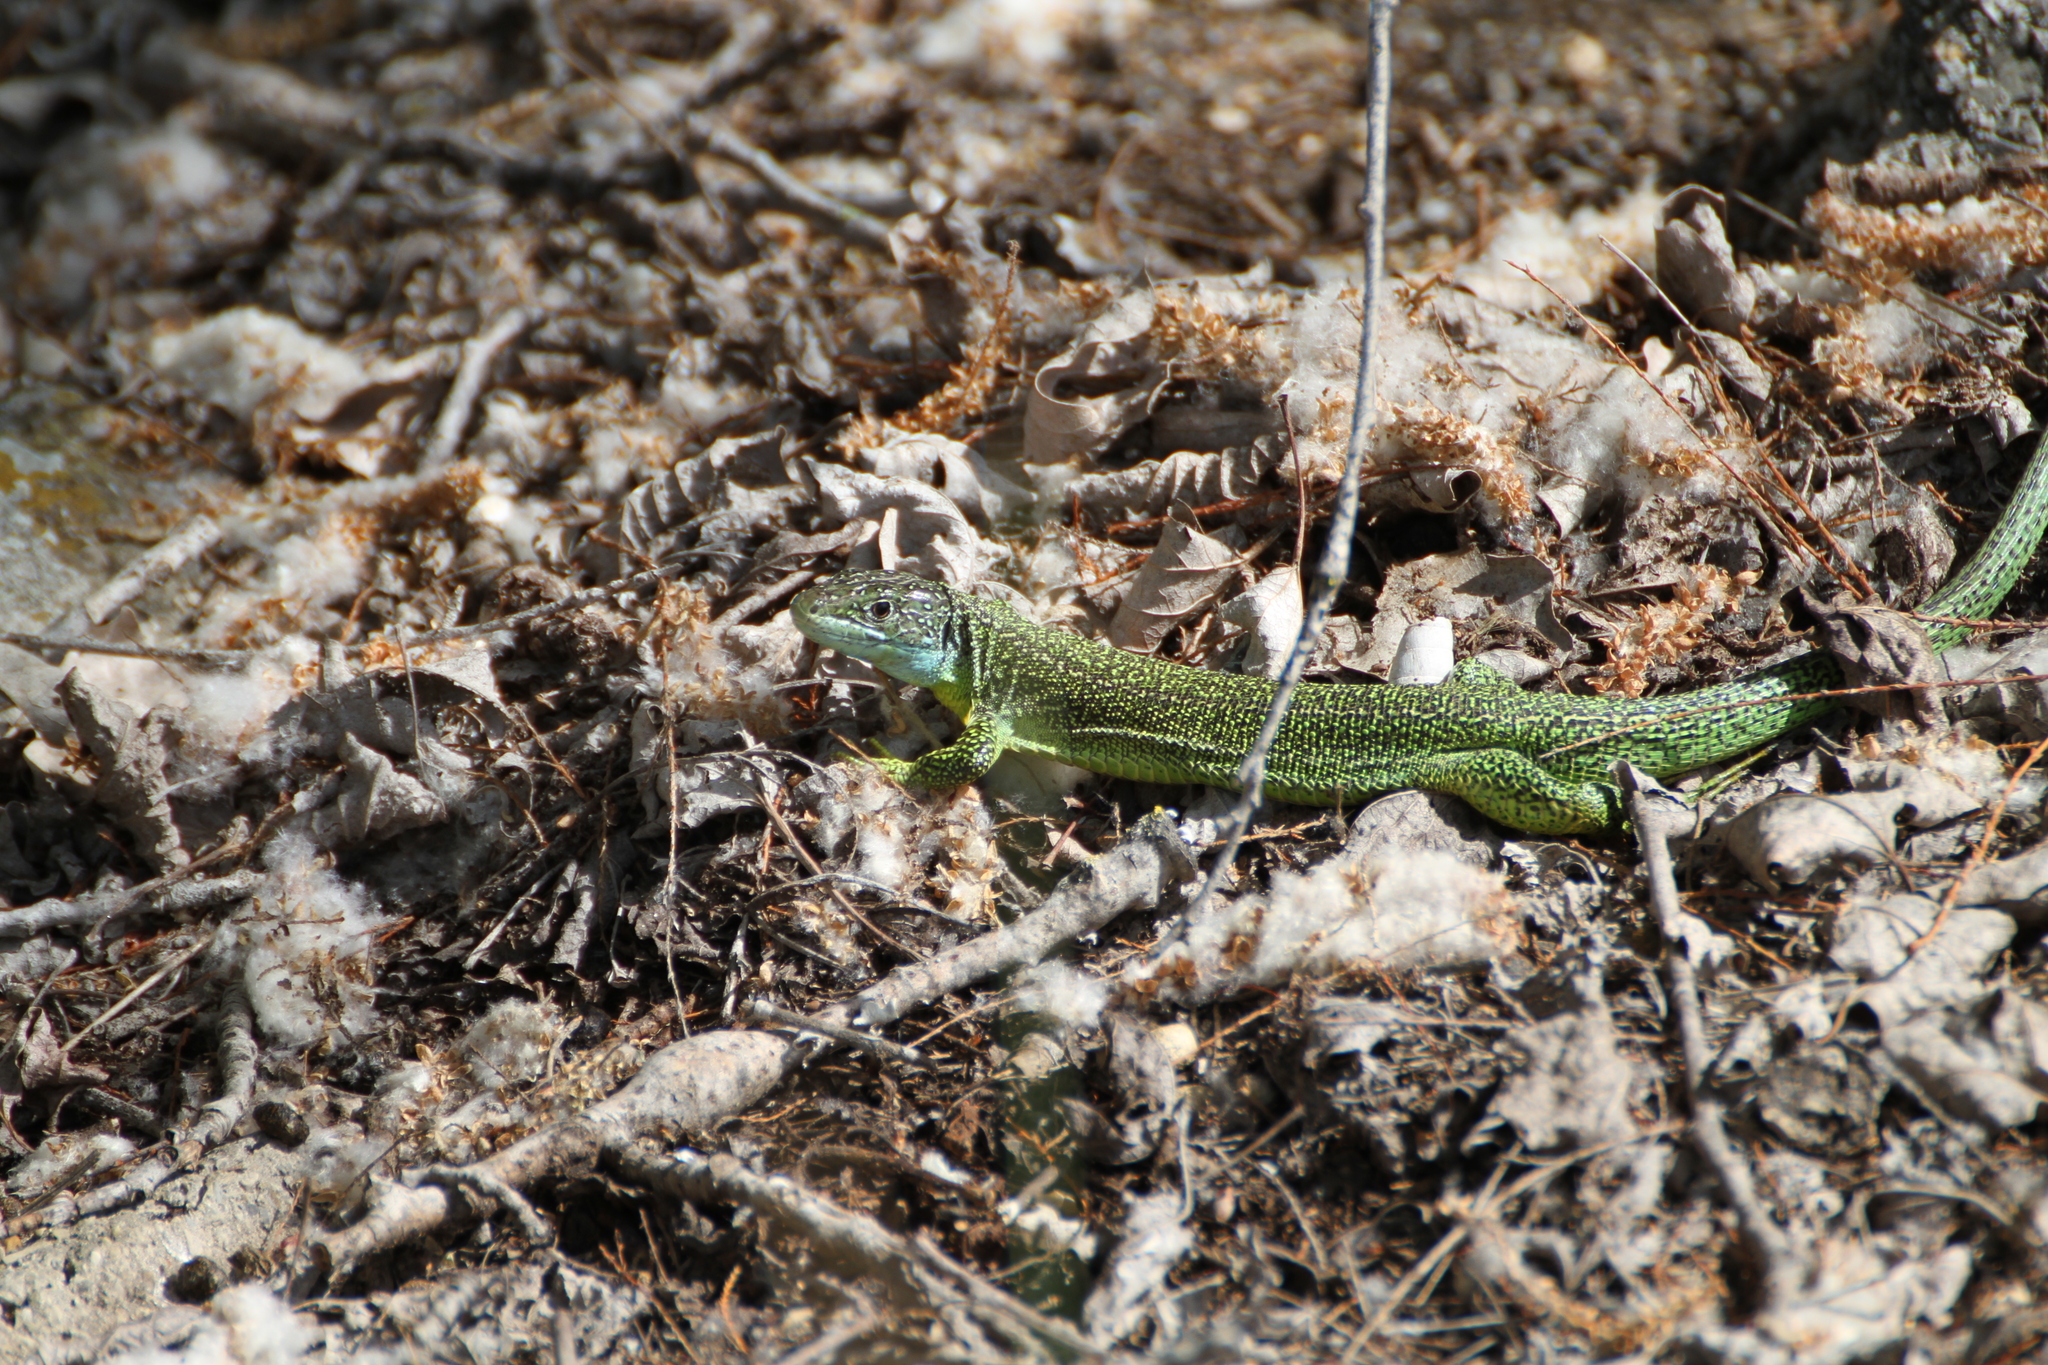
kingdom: Animalia
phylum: Chordata
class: Squamata
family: Lacertidae
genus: Lacerta
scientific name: Lacerta bilineata
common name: Western green lizard
